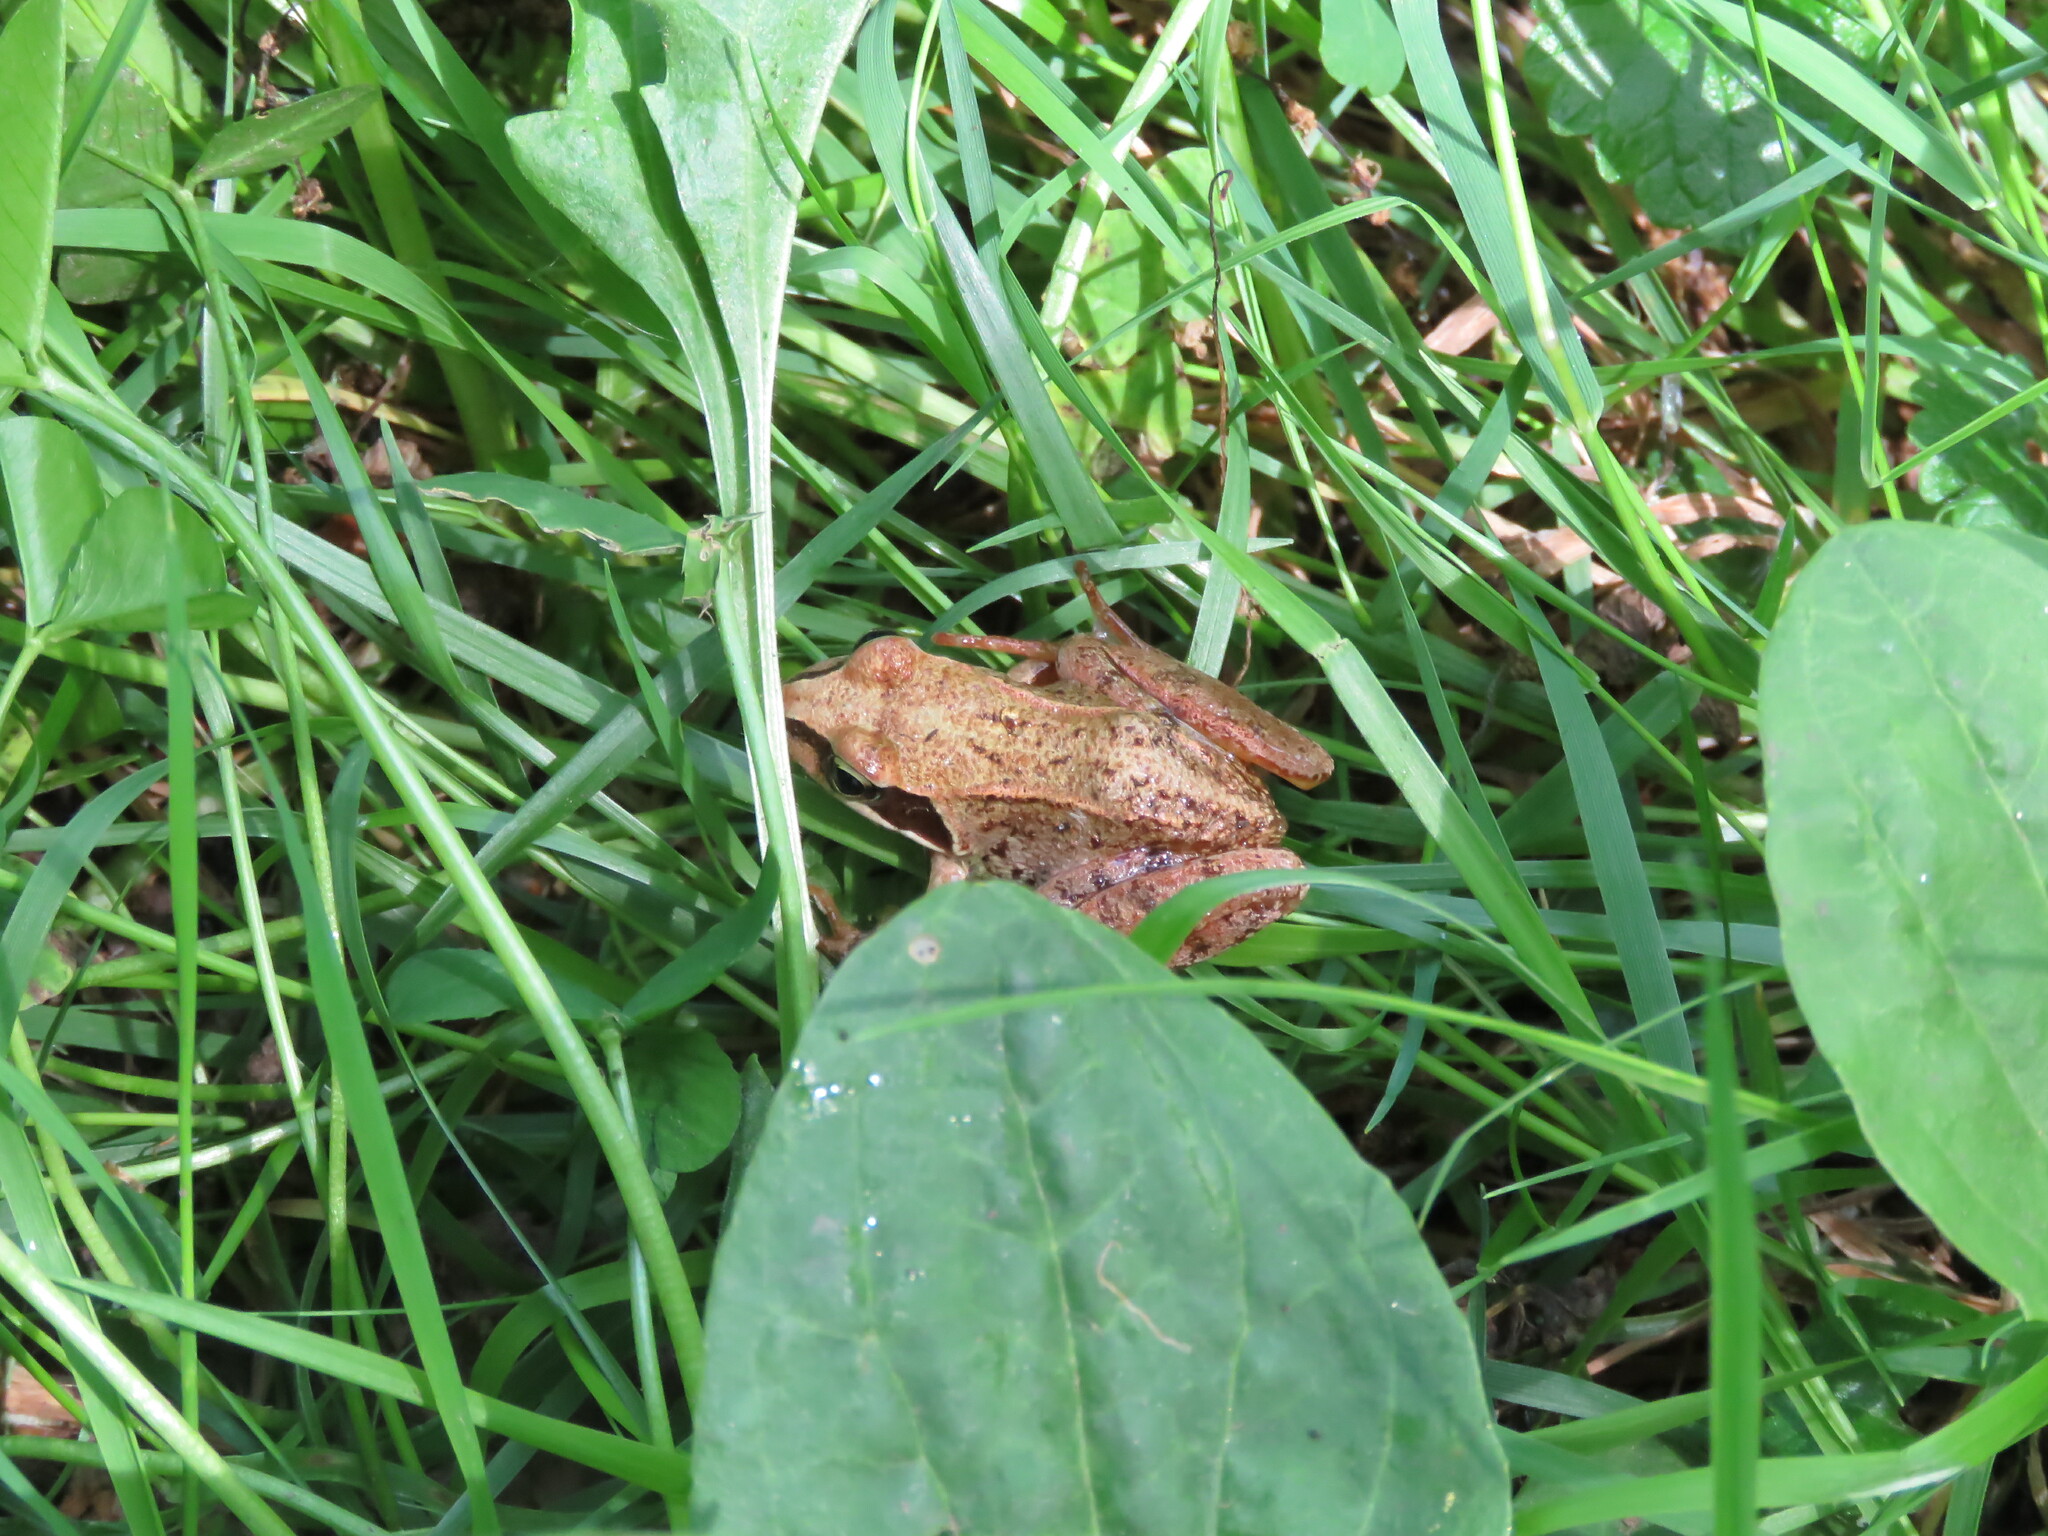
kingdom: Animalia
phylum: Chordata
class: Amphibia
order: Anura
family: Ranidae
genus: Rana
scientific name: Rana temporaria
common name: Common frog
